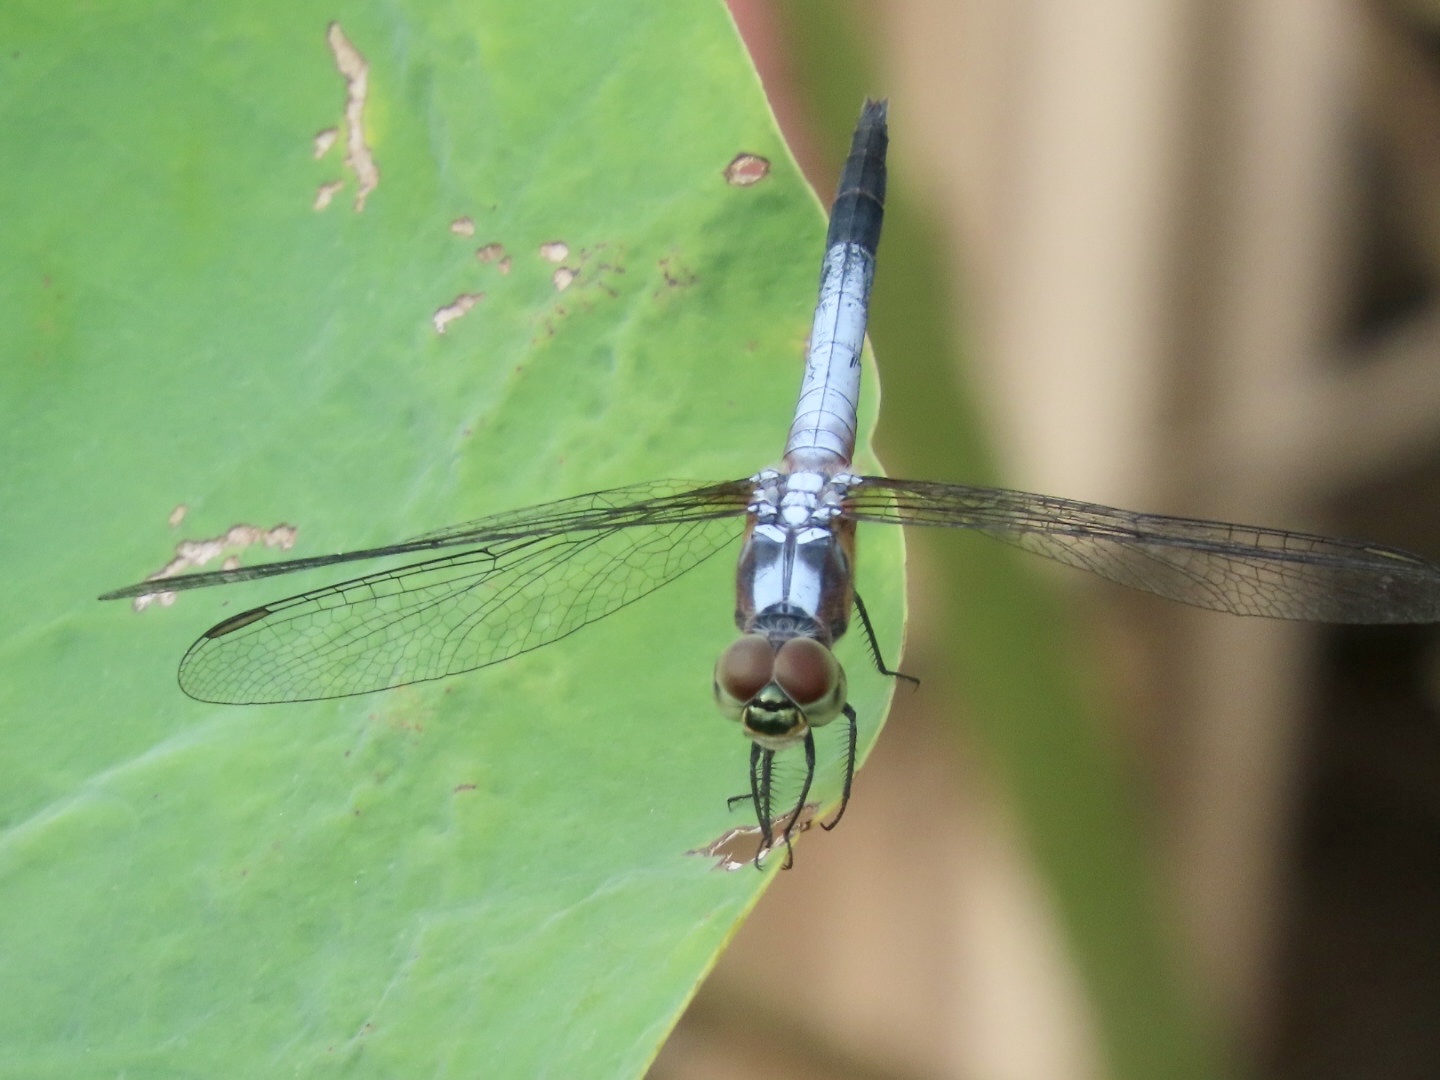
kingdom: Animalia
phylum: Arthropoda
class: Insecta
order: Odonata
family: Libellulidae
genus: Brachydiplax
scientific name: Brachydiplax chalybea
